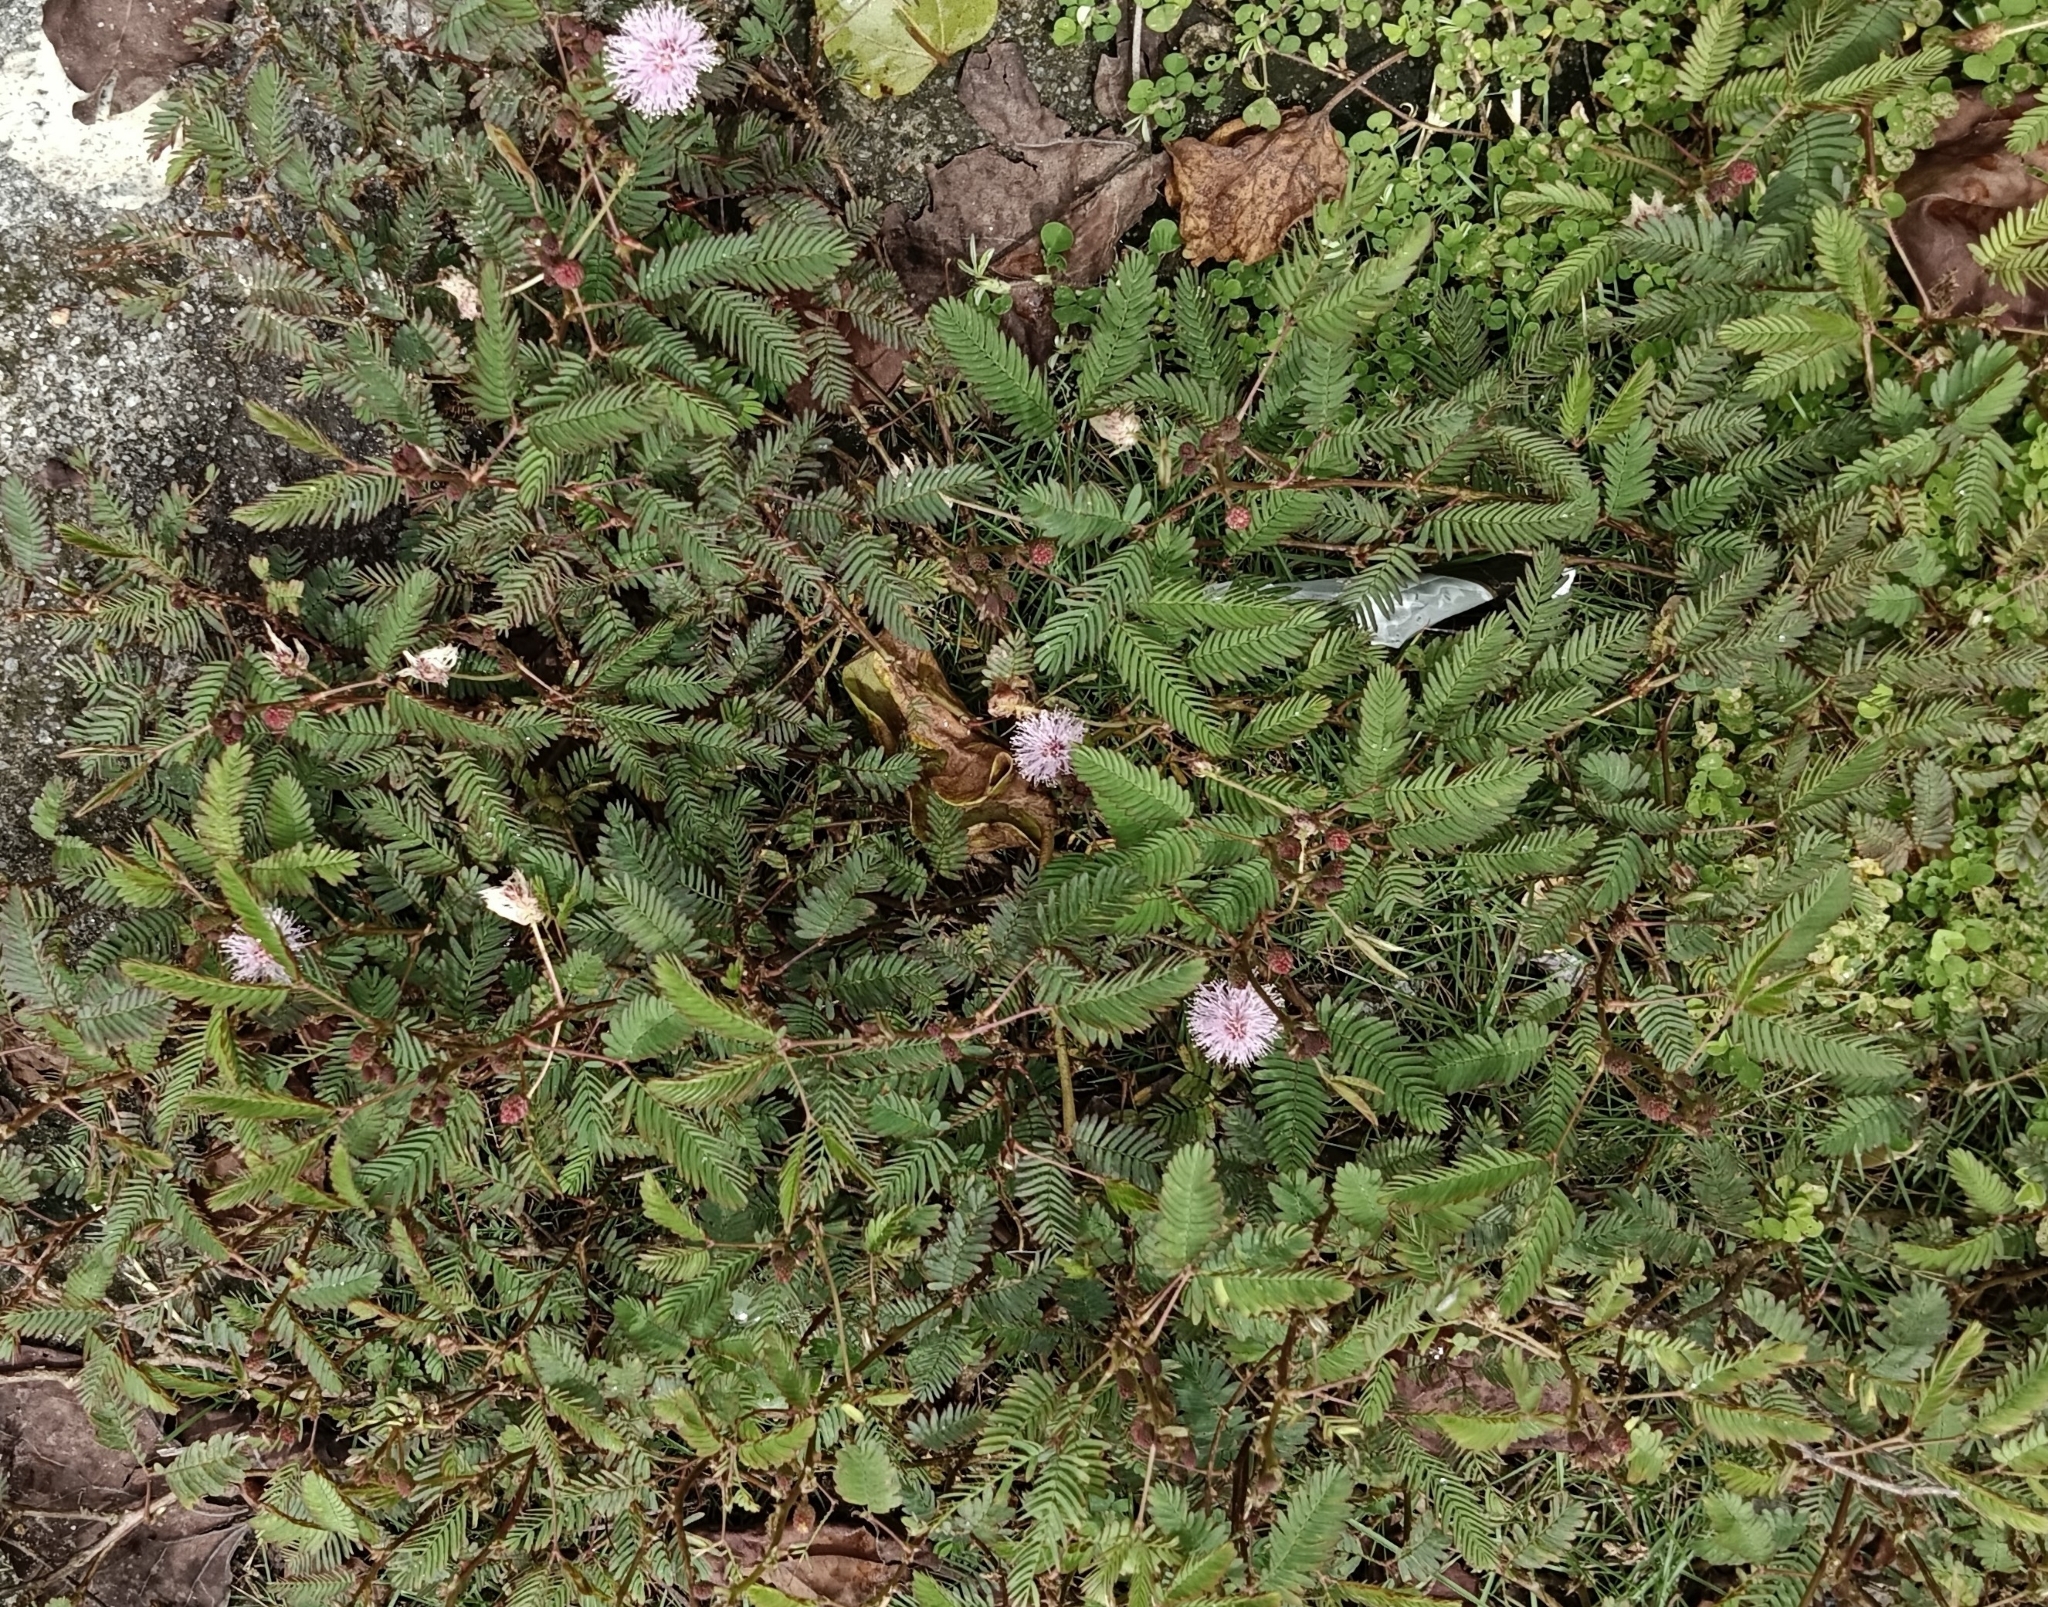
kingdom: Plantae
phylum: Tracheophyta
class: Magnoliopsida
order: Fabales
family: Fabaceae
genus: Mimosa
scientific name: Mimosa pudica
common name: Sensitive plant
